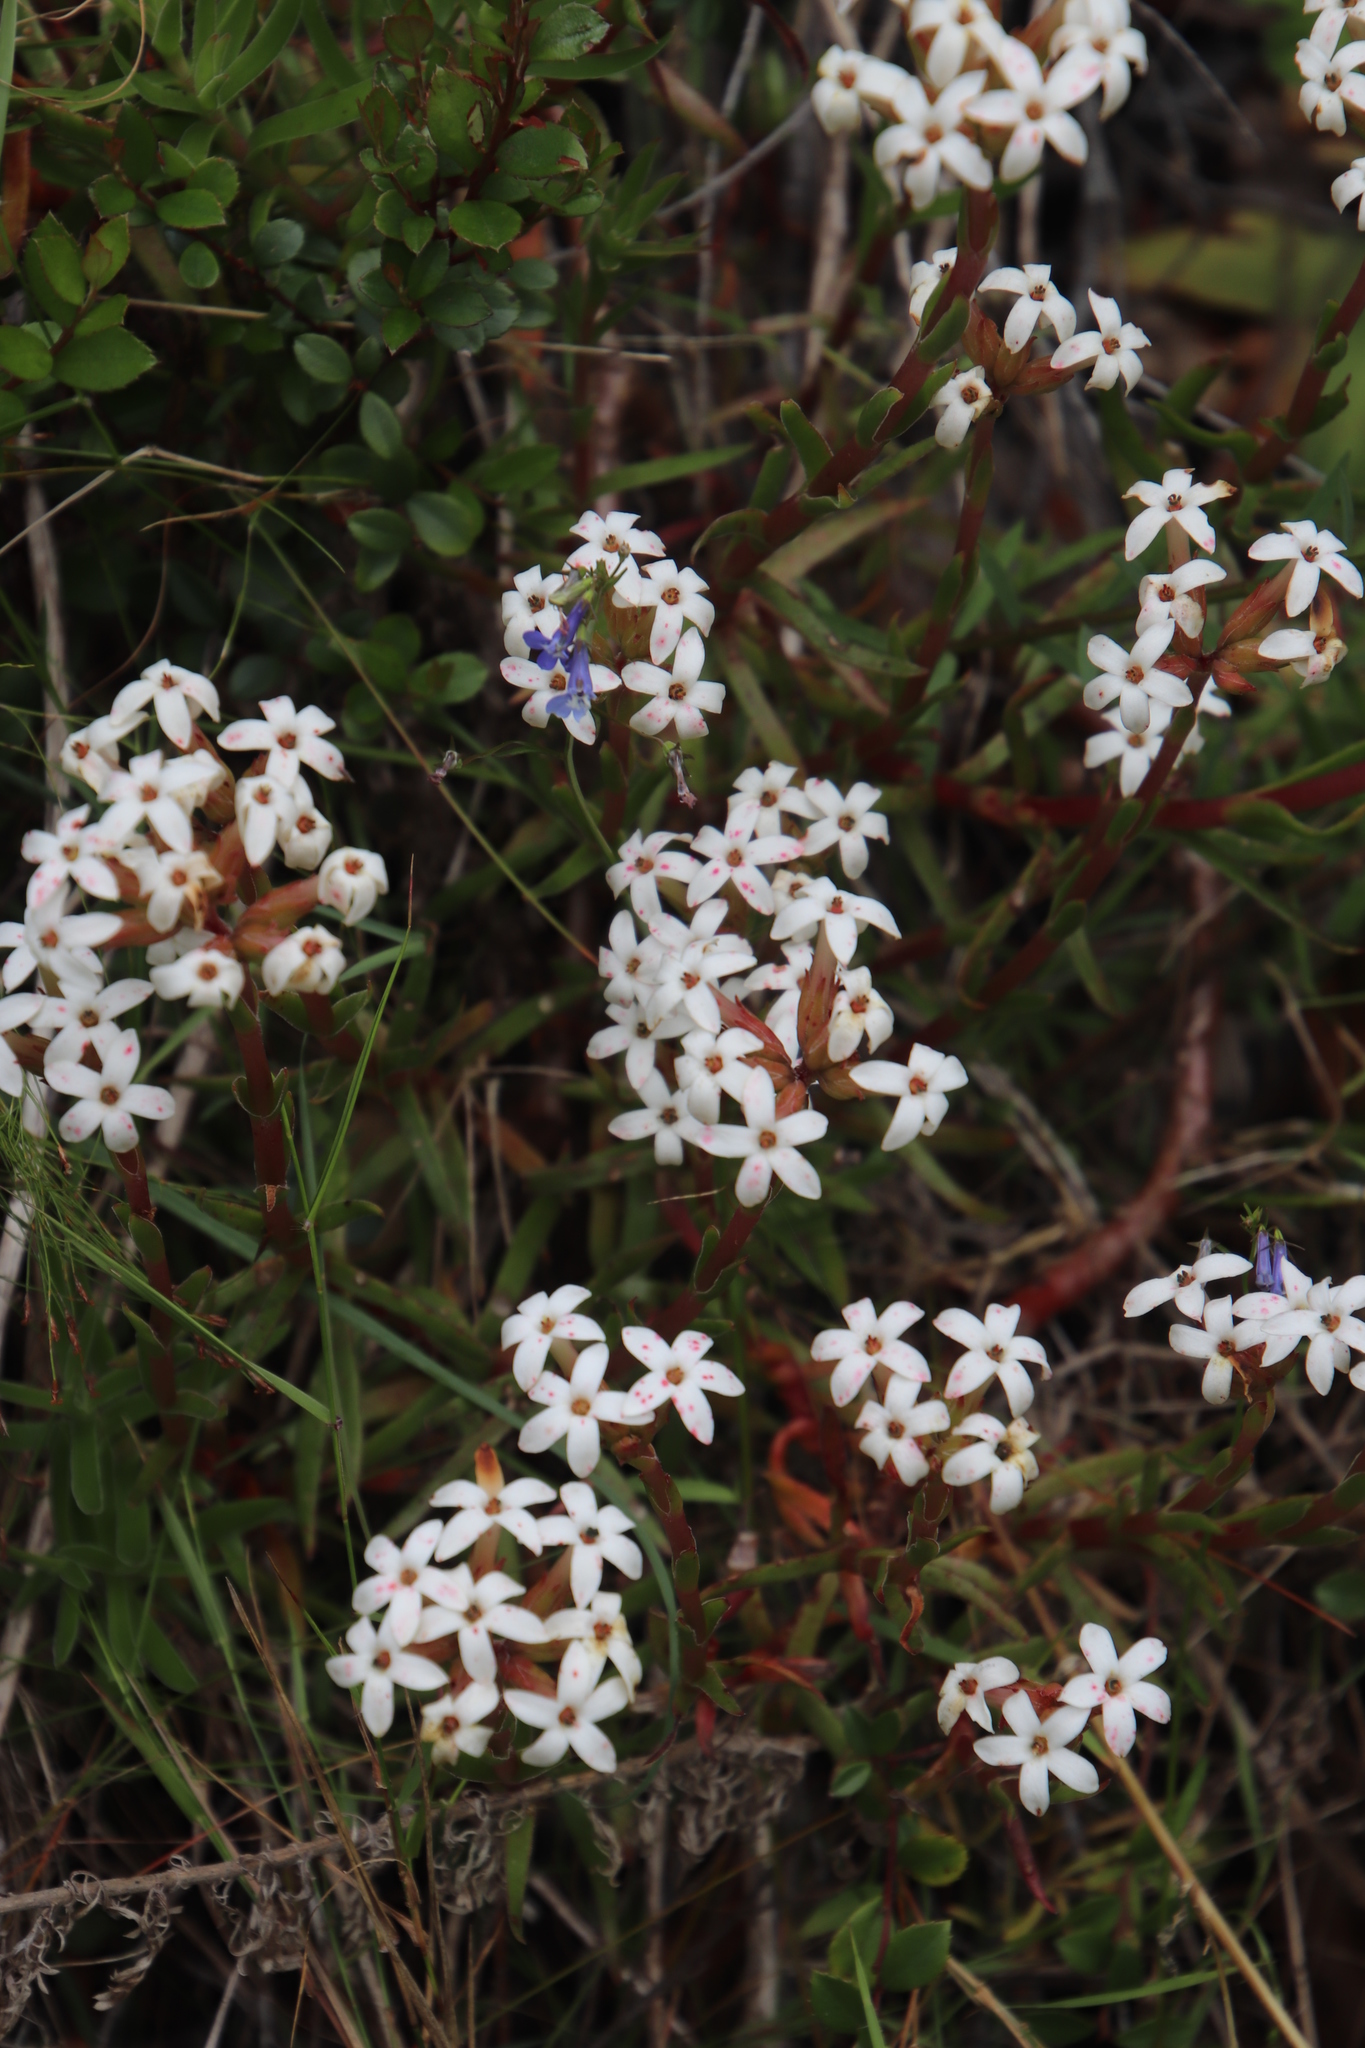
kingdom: Plantae
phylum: Tracheophyta
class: Magnoliopsida
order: Saxifragales
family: Crassulaceae
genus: Crassula
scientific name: Crassula fascicularis
